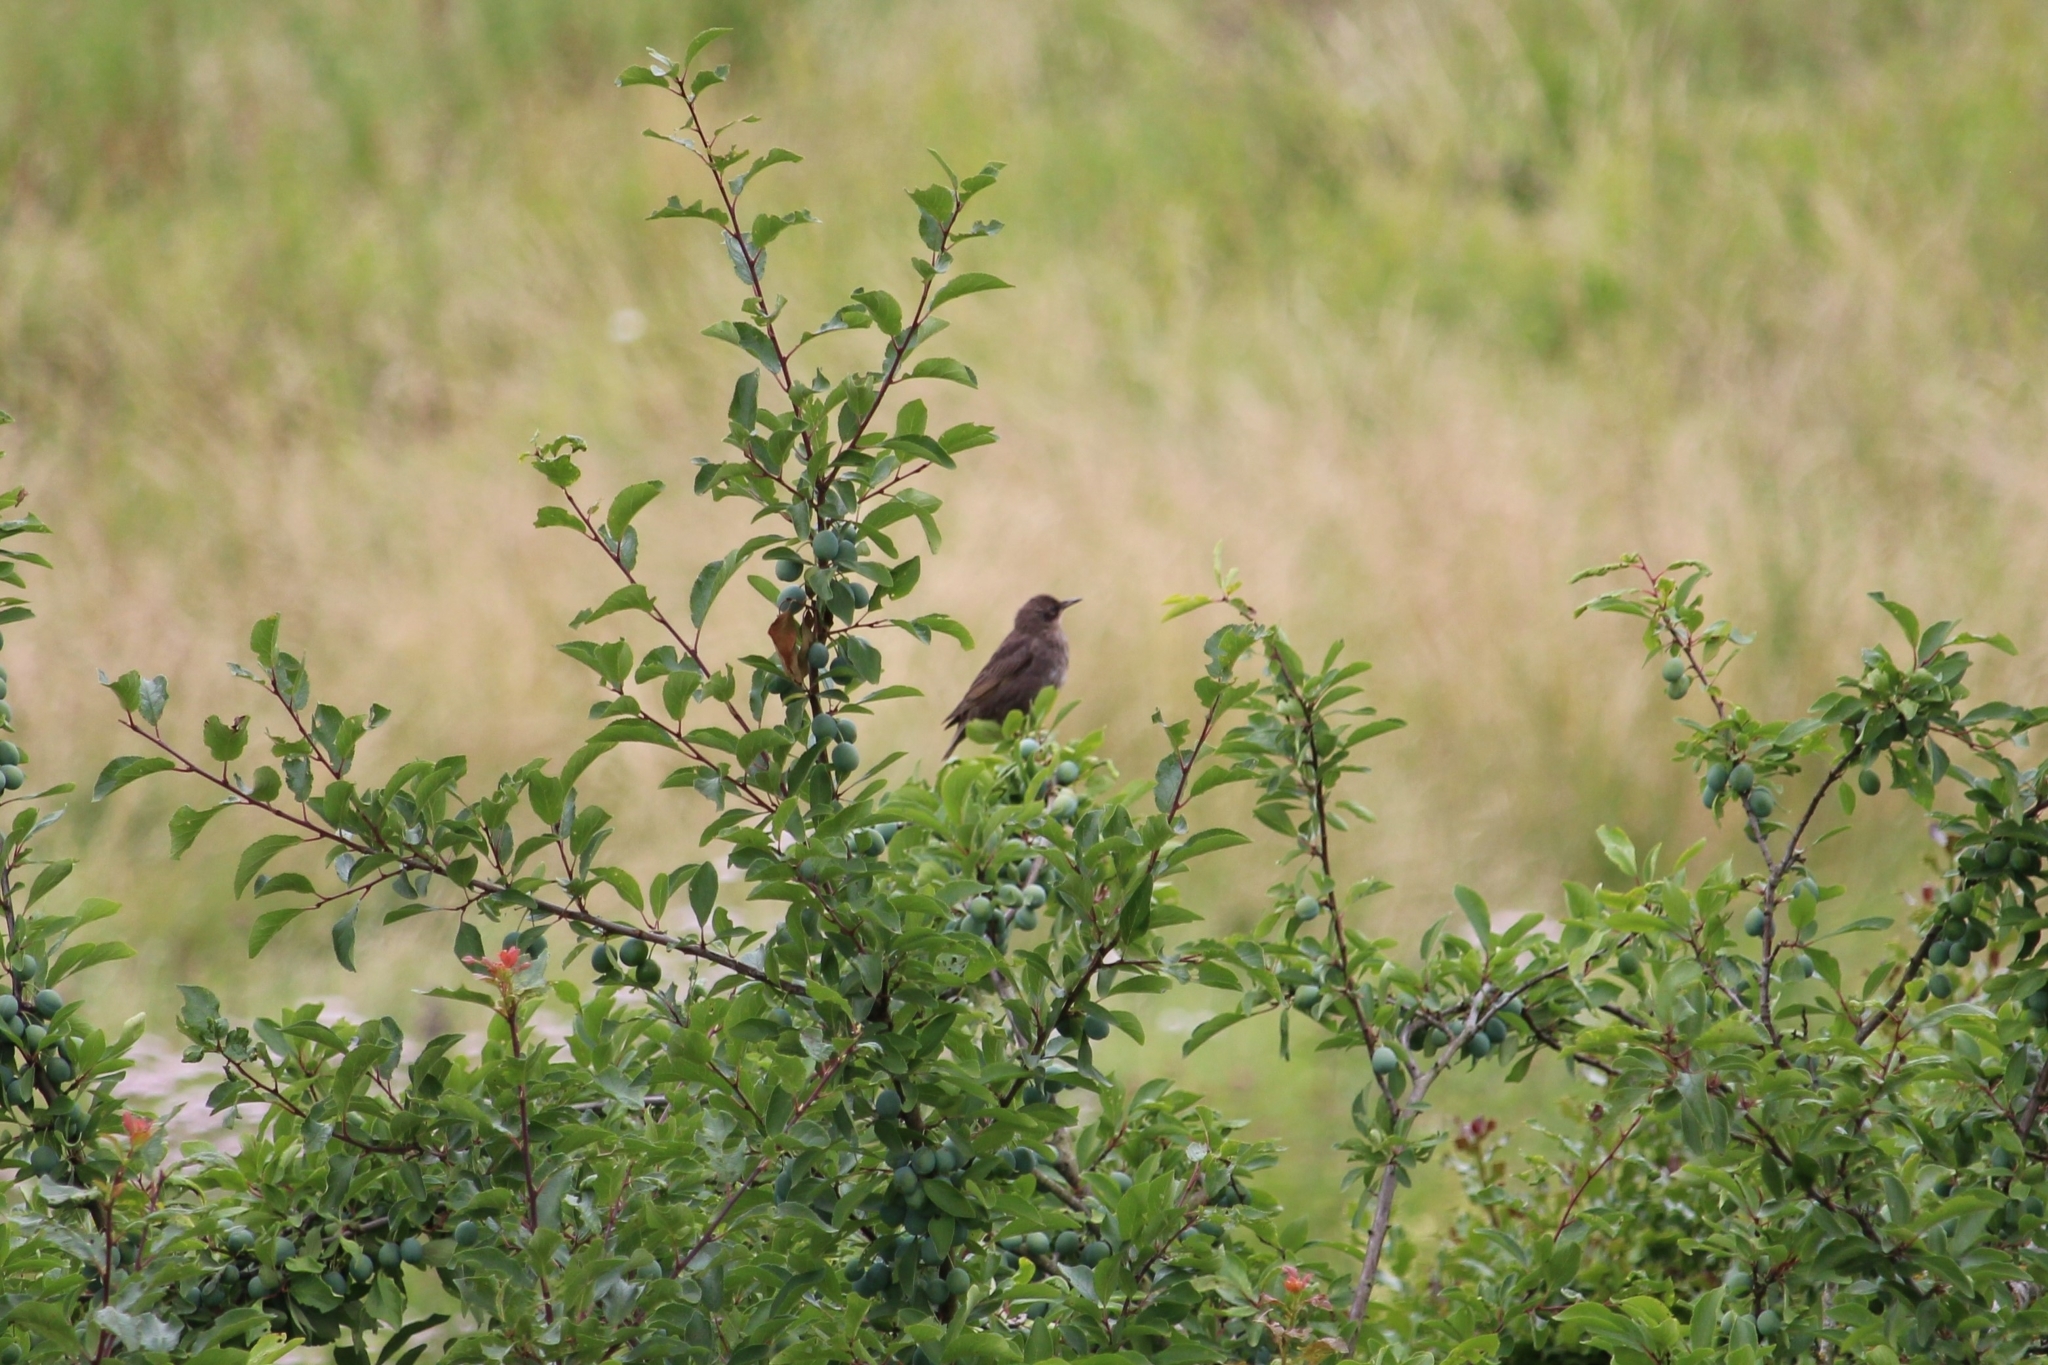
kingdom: Animalia
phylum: Chordata
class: Aves
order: Passeriformes
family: Sturnidae
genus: Sturnus
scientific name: Sturnus vulgaris
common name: Common starling
